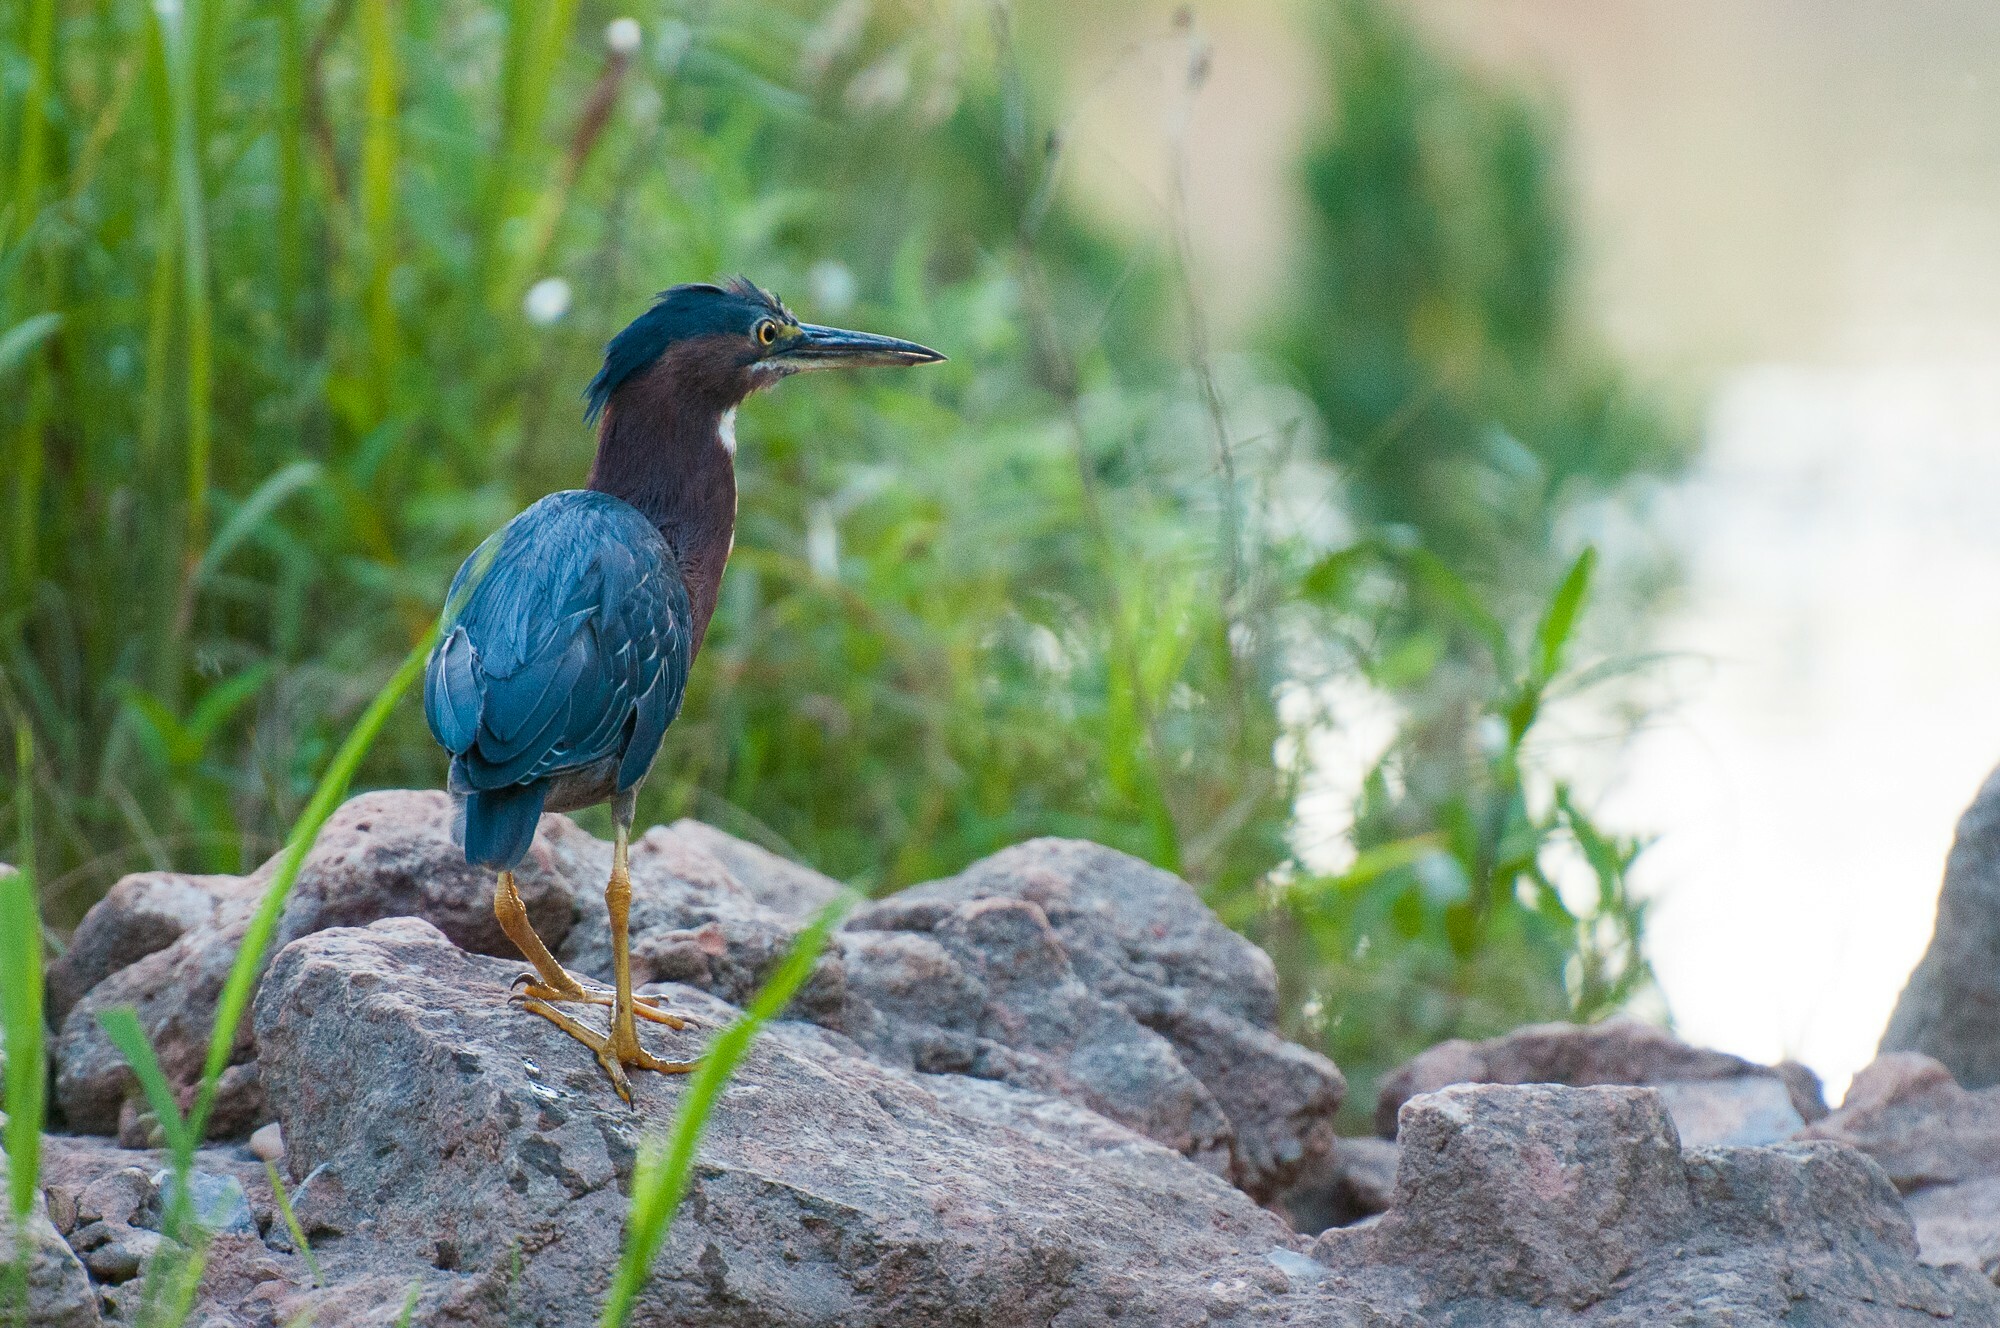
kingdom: Animalia
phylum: Chordata
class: Aves
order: Pelecaniformes
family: Ardeidae
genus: Butorides
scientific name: Butorides virescens
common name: Green heron
